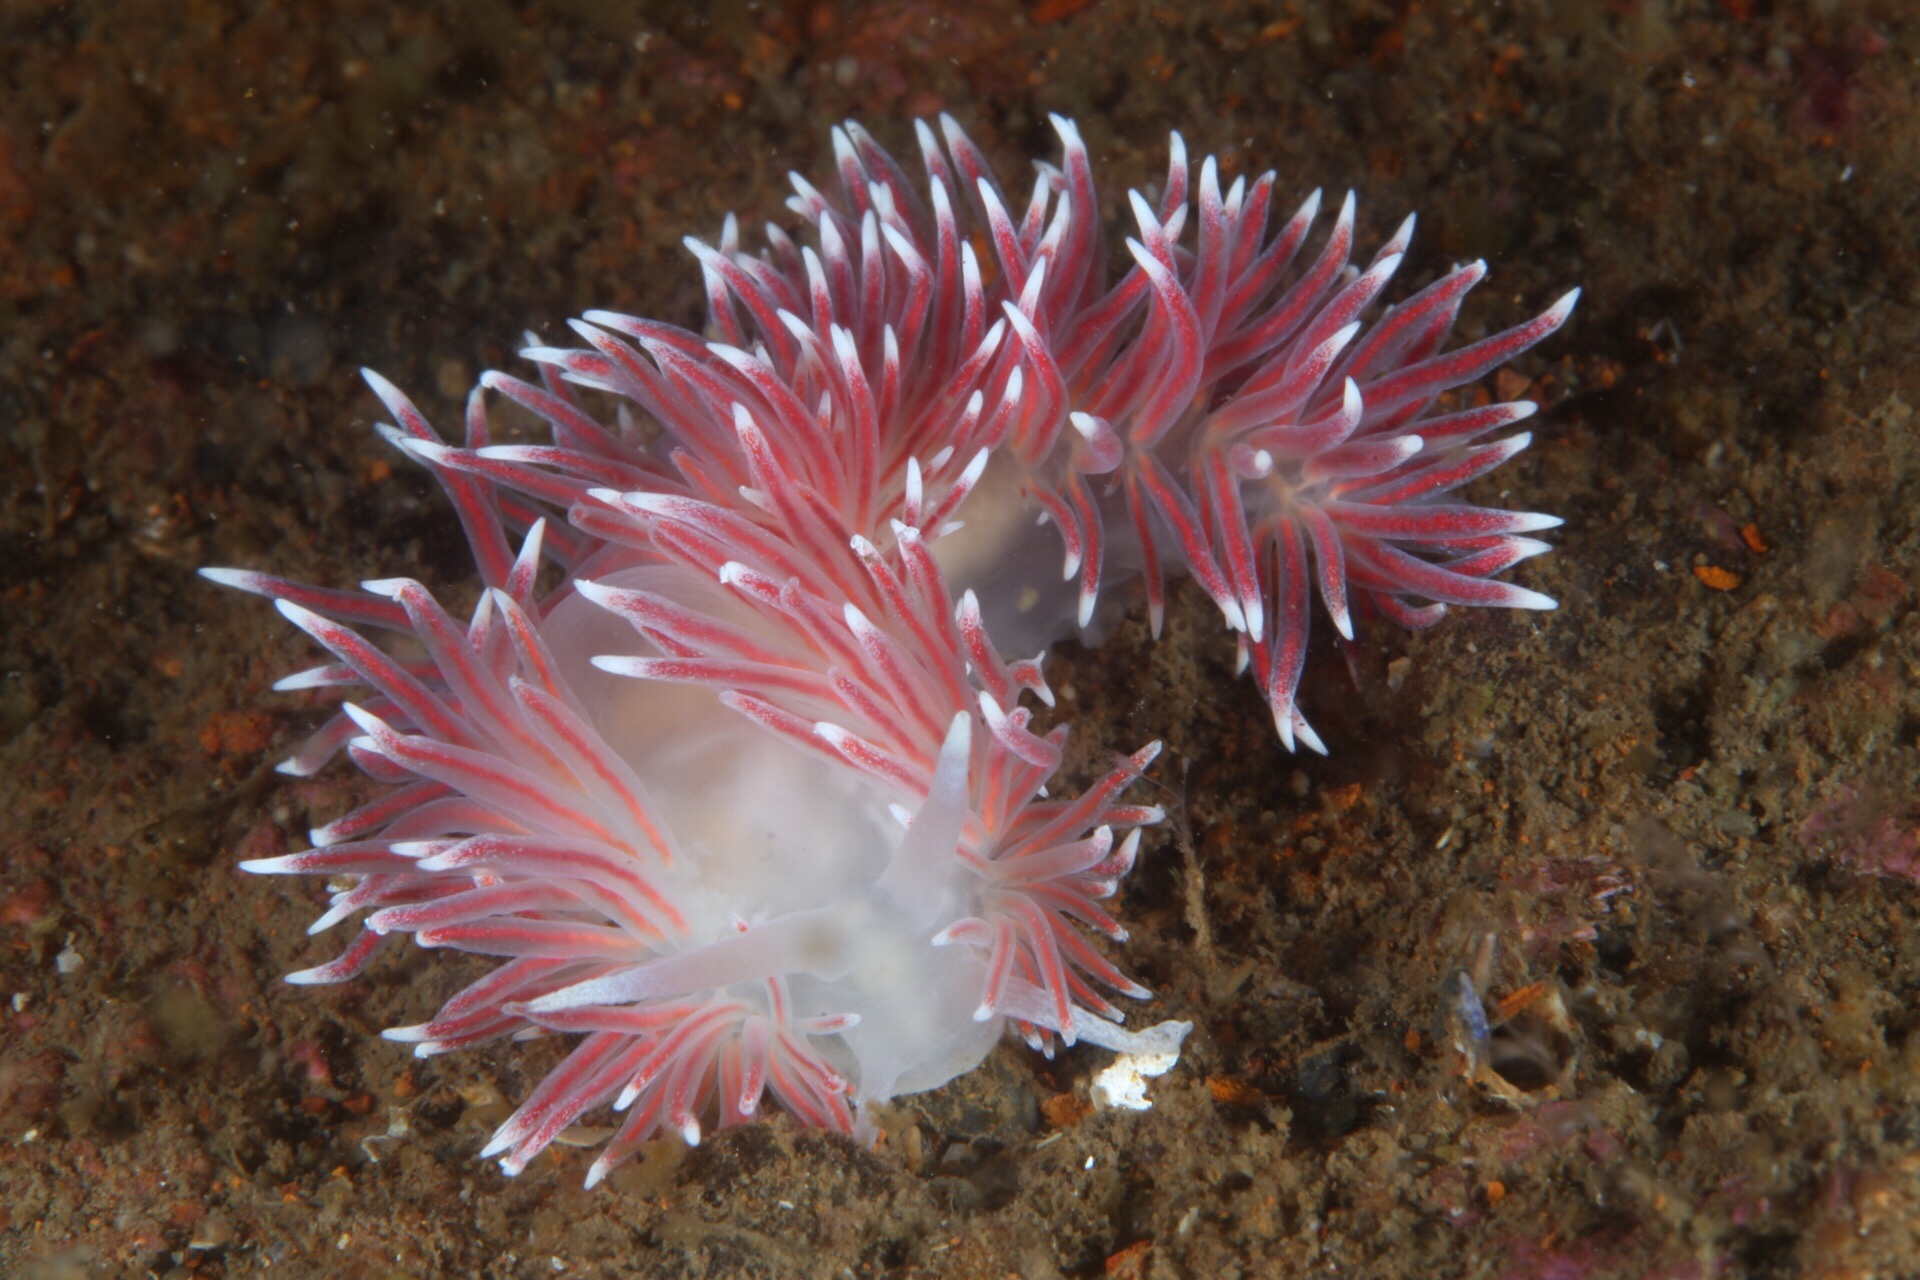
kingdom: Animalia
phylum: Mollusca
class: Gastropoda
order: Nudibranchia
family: Flabellinidae
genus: Carronella
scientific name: Carronella pellucida
